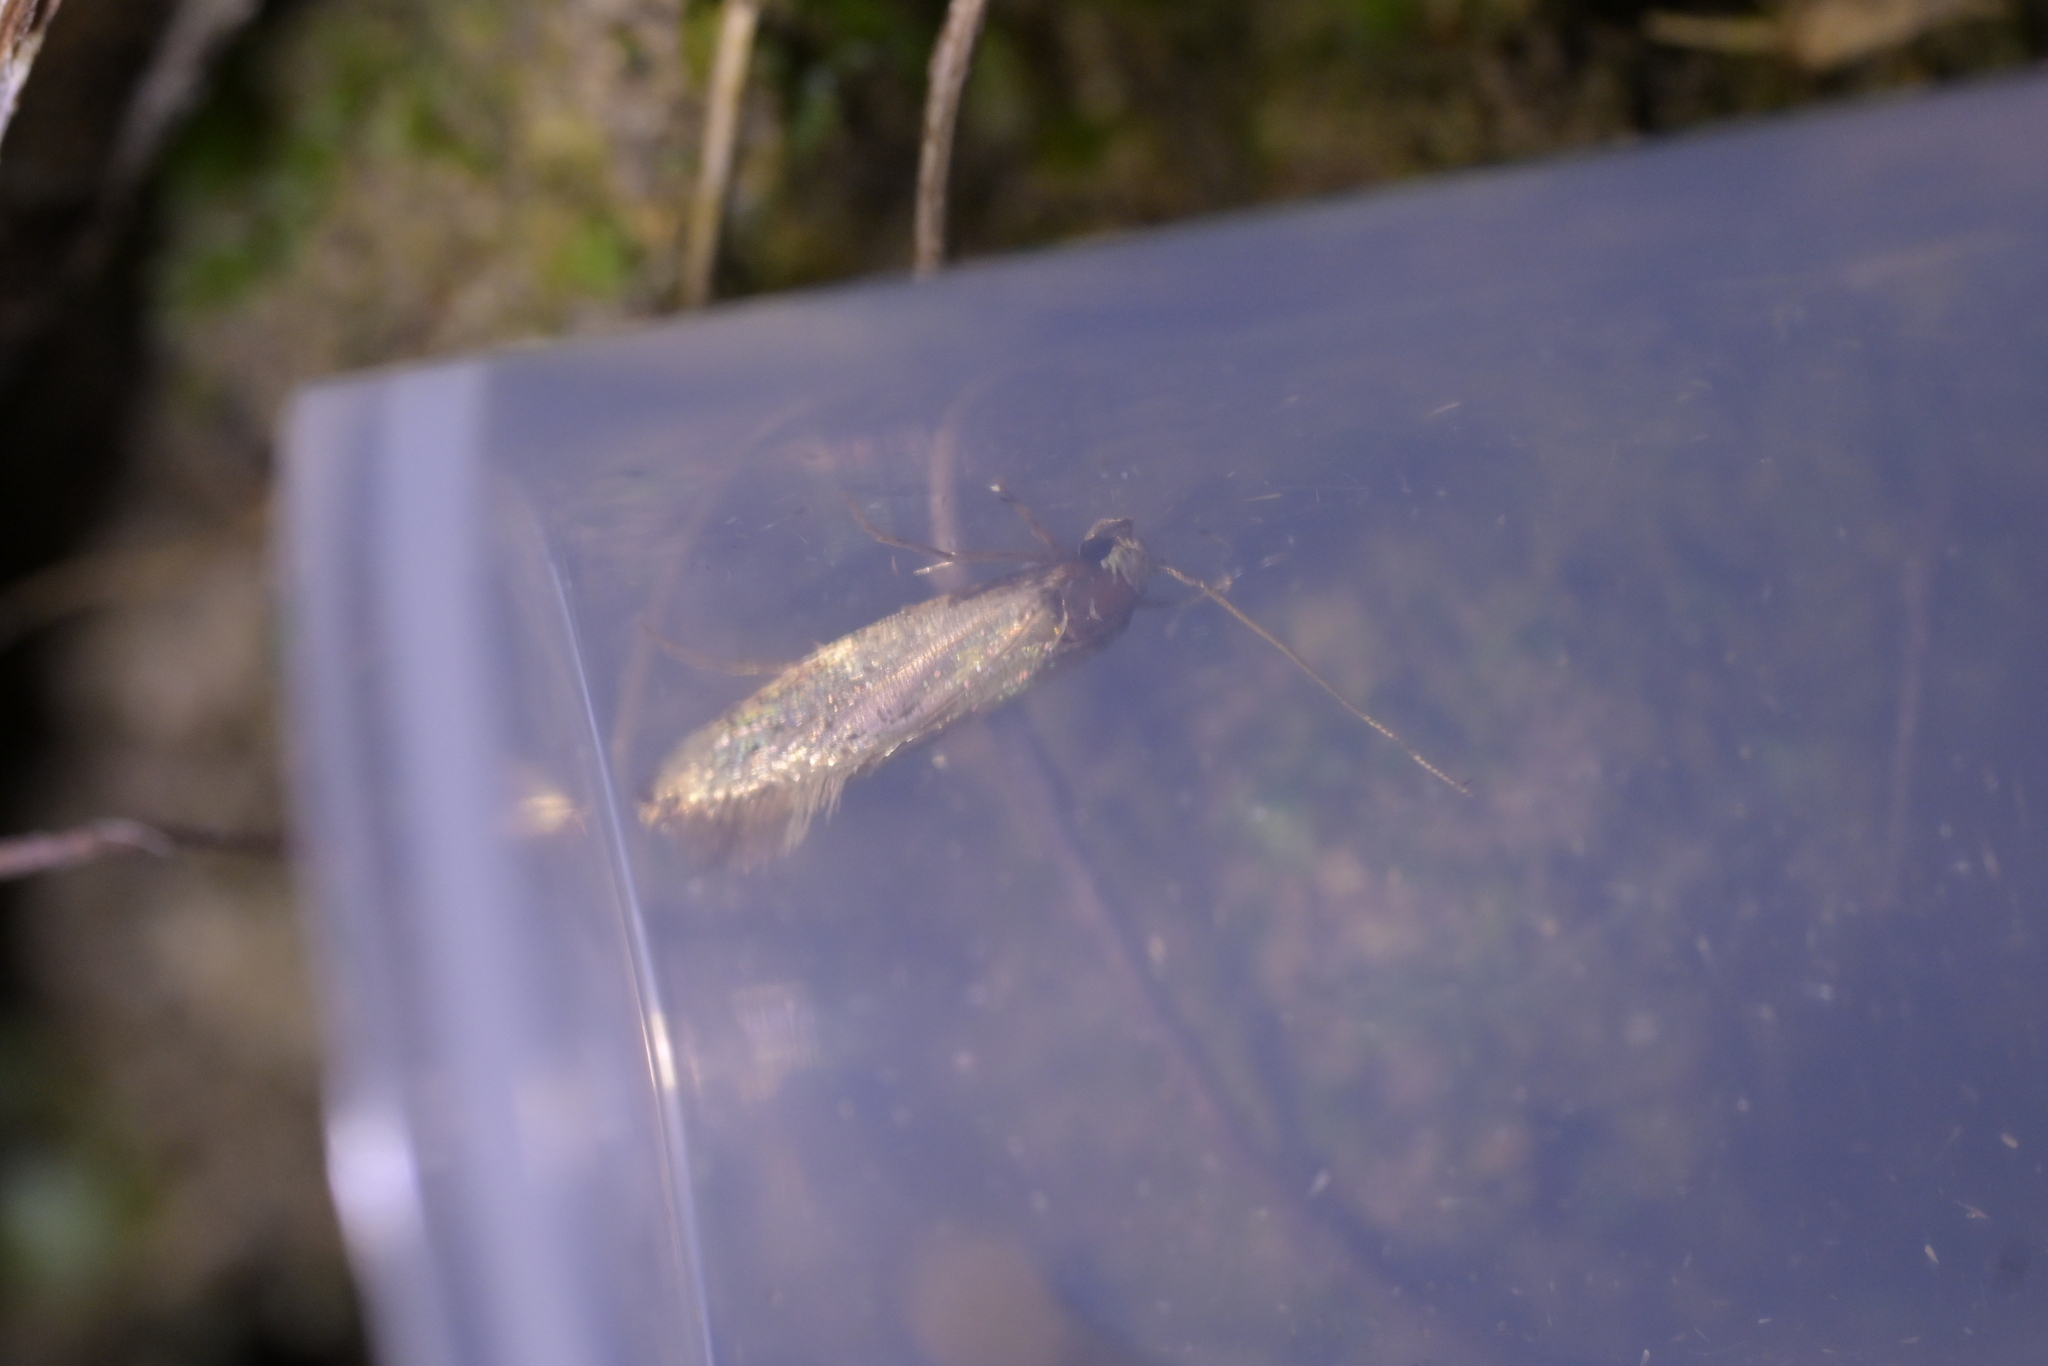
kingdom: Animalia
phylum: Arthropoda
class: Insecta
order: Lepidoptera
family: Tineidae
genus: Opogona
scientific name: Opogona omoscopa
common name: Moth
